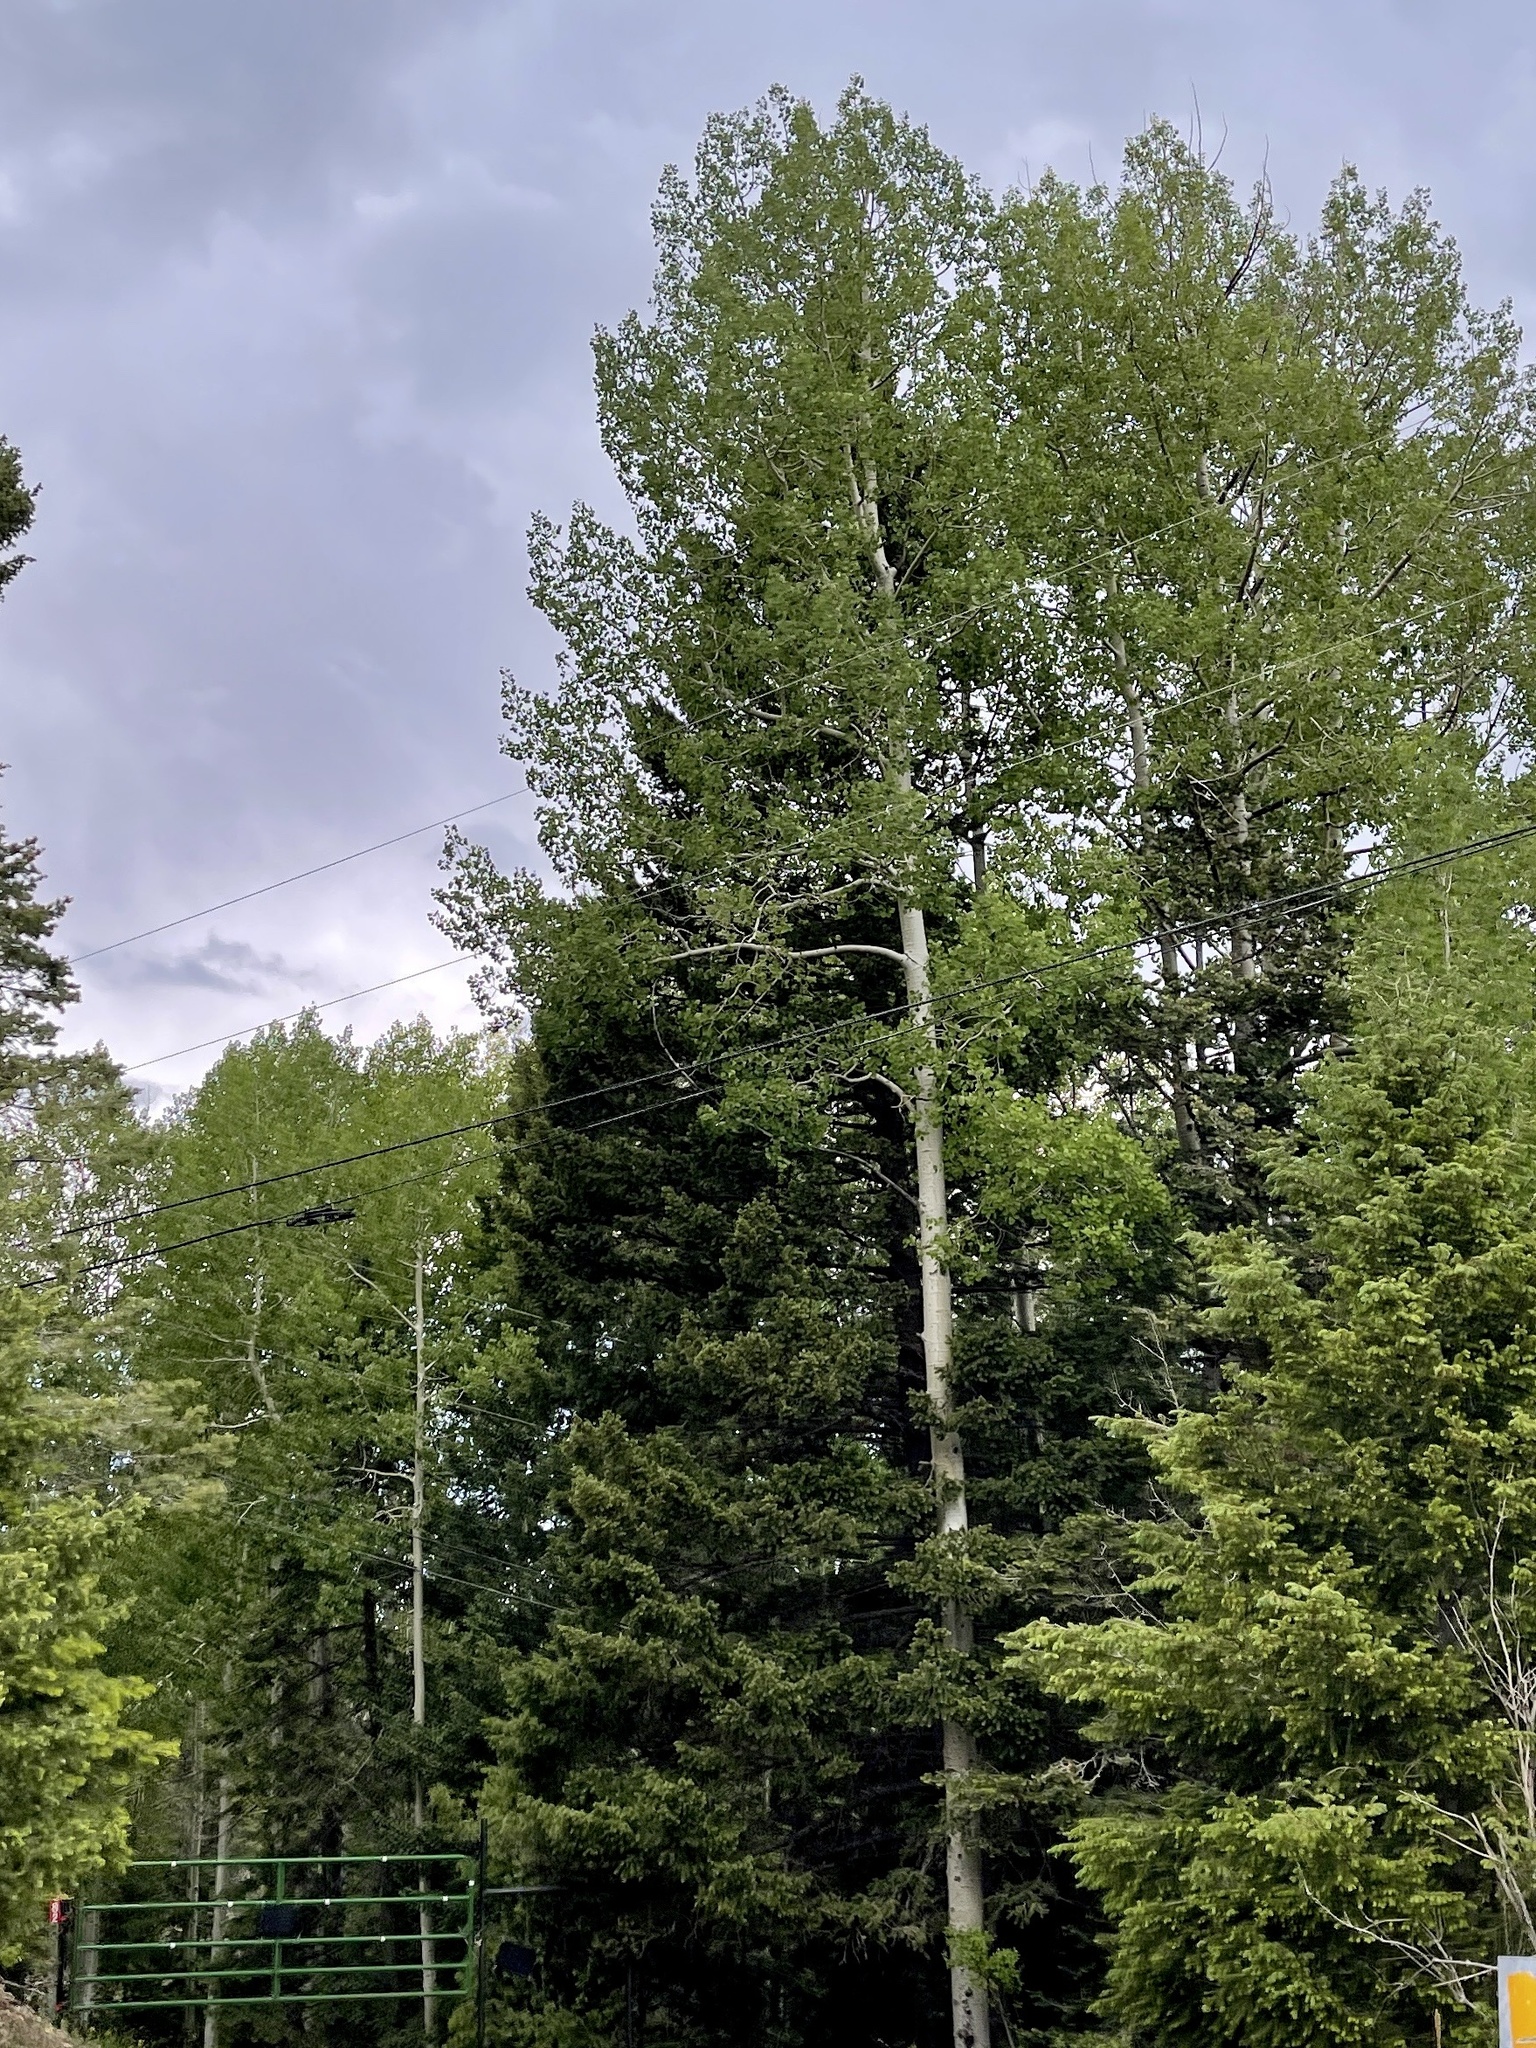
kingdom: Plantae
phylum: Tracheophyta
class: Magnoliopsida
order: Malpighiales
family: Salicaceae
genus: Populus
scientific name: Populus tremuloides
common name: Quaking aspen
